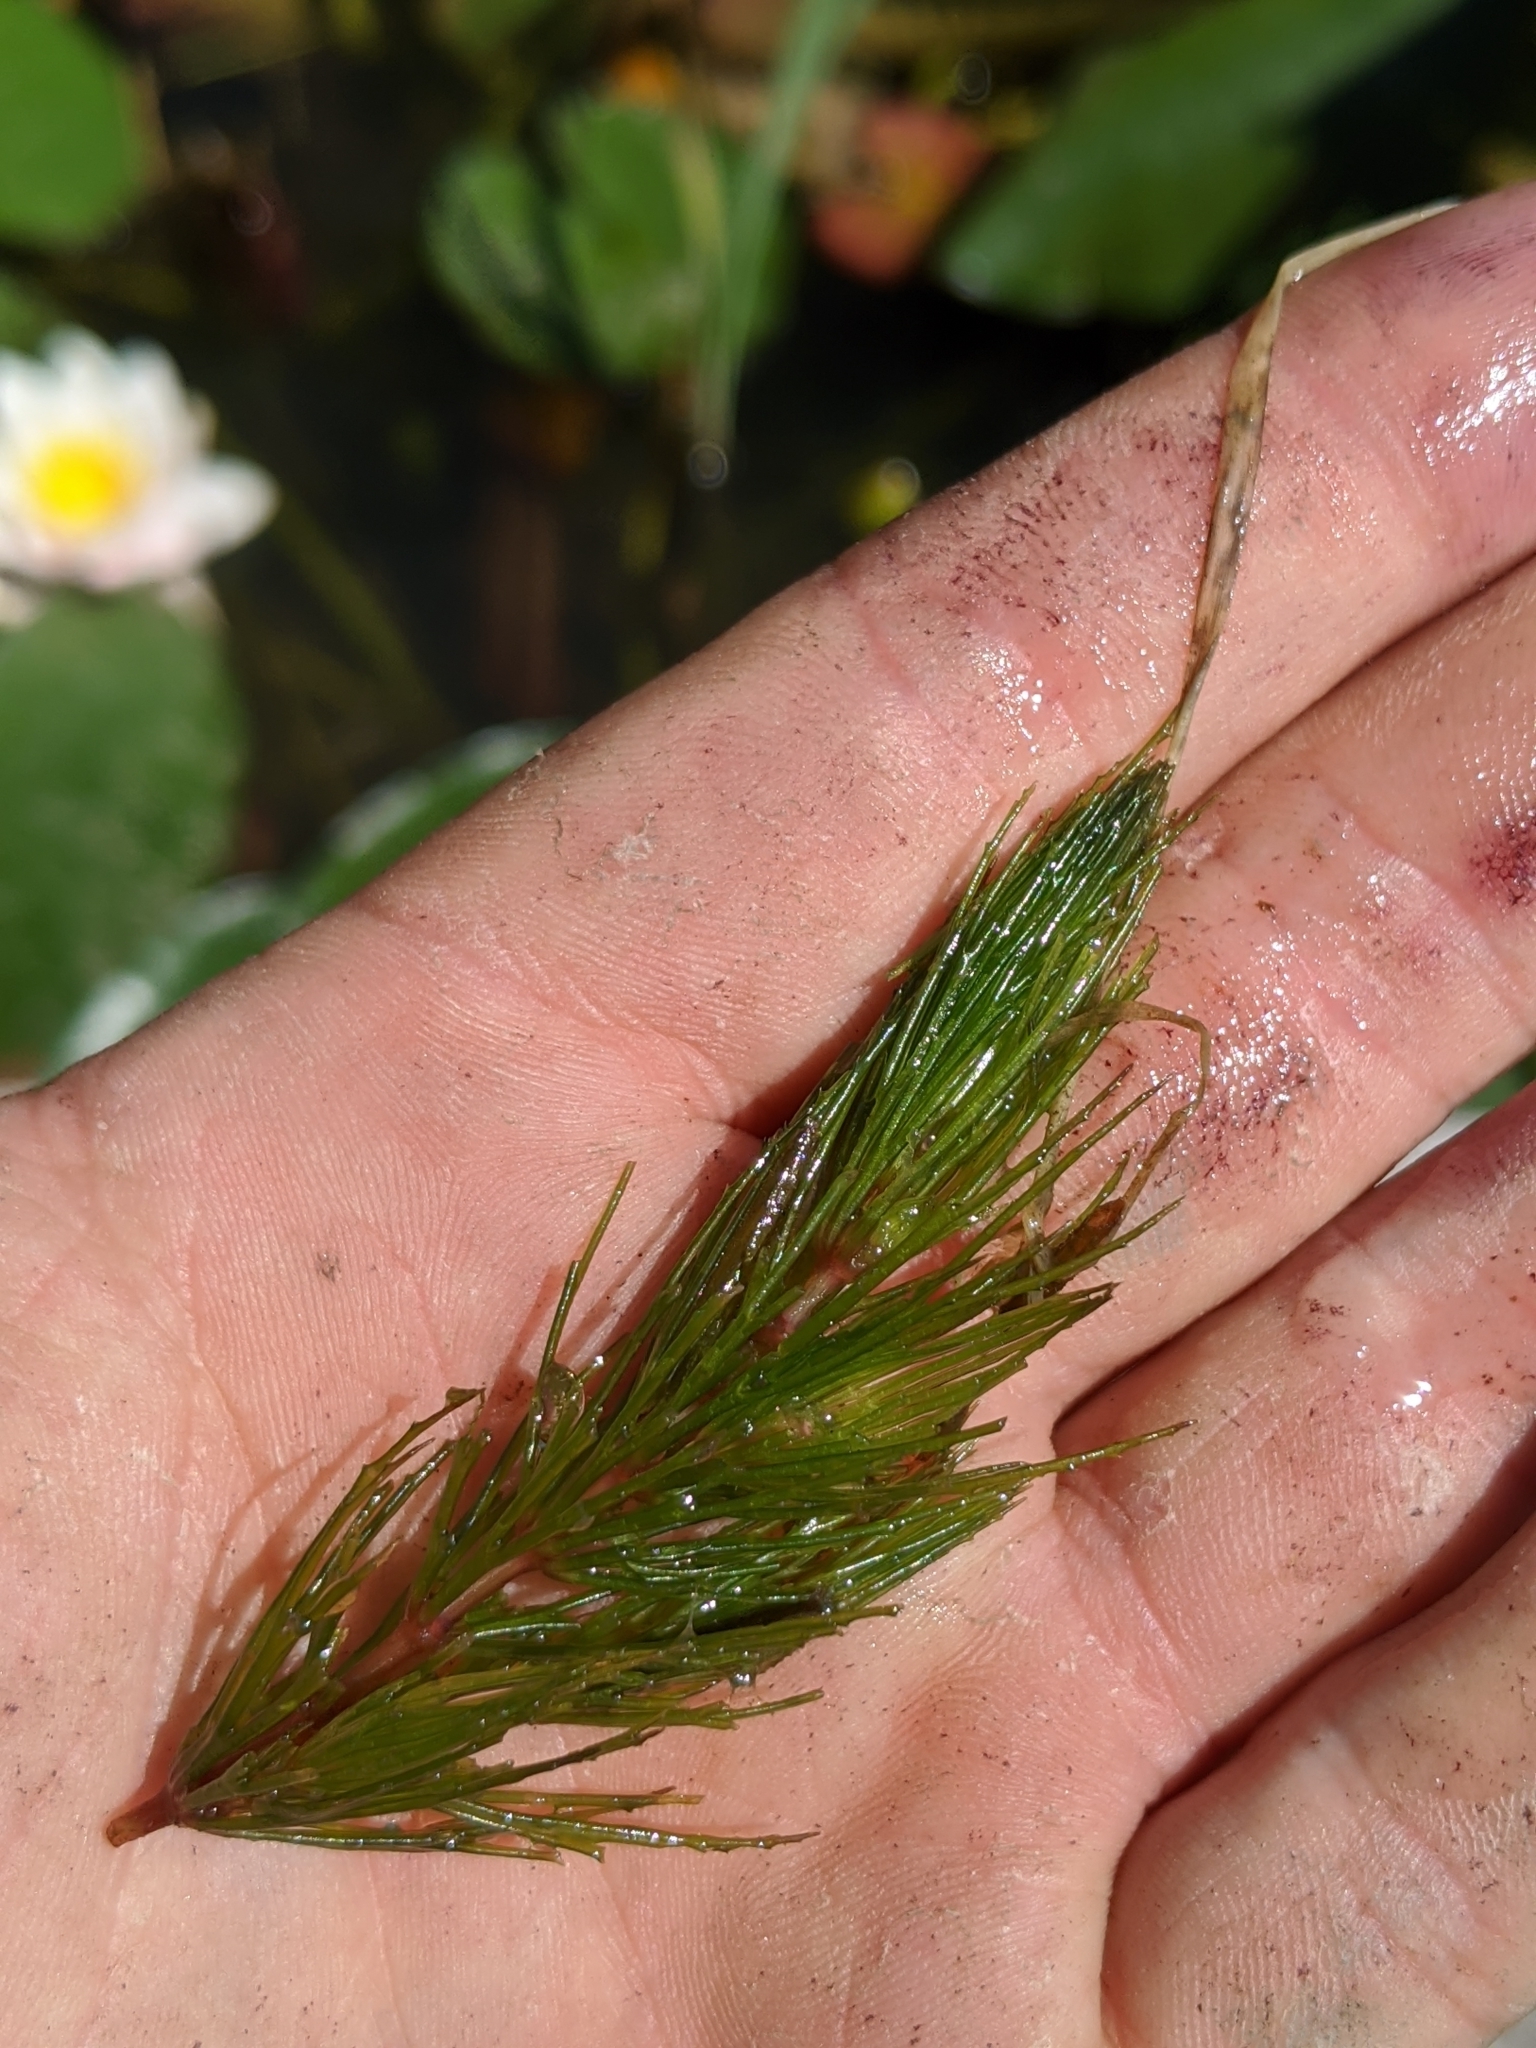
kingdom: Plantae
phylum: Tracheophyta
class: Magnoliopsida
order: Ceratophyllales
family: Ceratophyllaceae
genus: Ceratophyllum
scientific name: Ceratophyllum demersum
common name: Rigid hornwort
